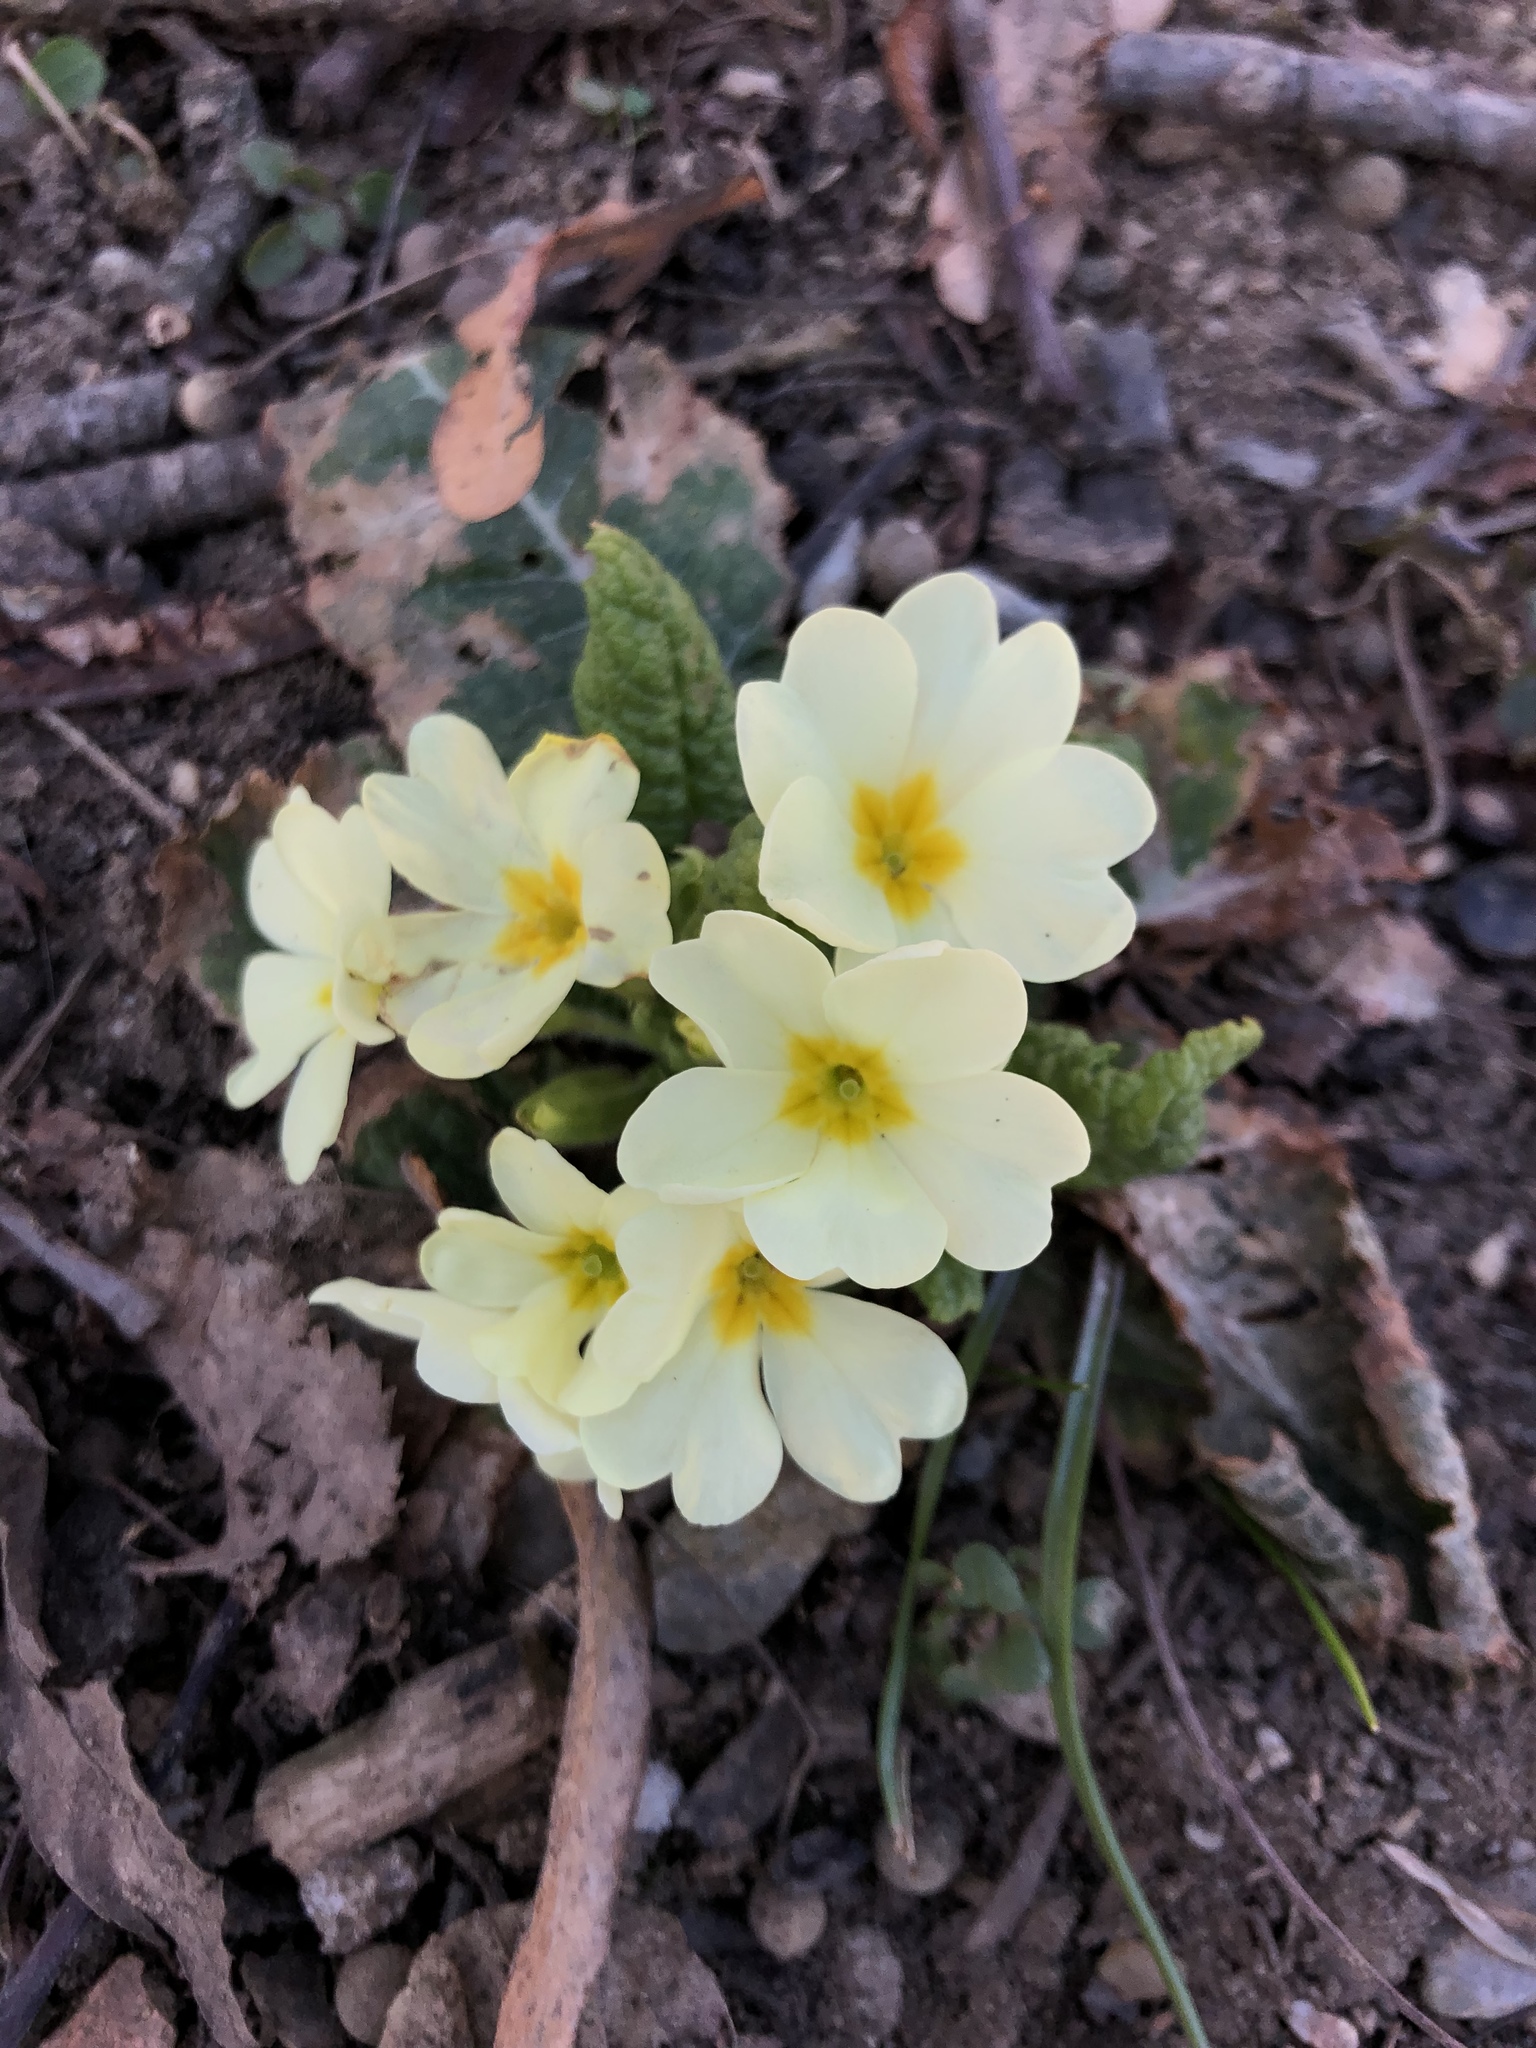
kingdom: Plantae
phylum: Tracheophyta
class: Magnoliopsida
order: Ericales
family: Primulaceae
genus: Primula
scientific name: Primula vulgaris
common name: Primrose
